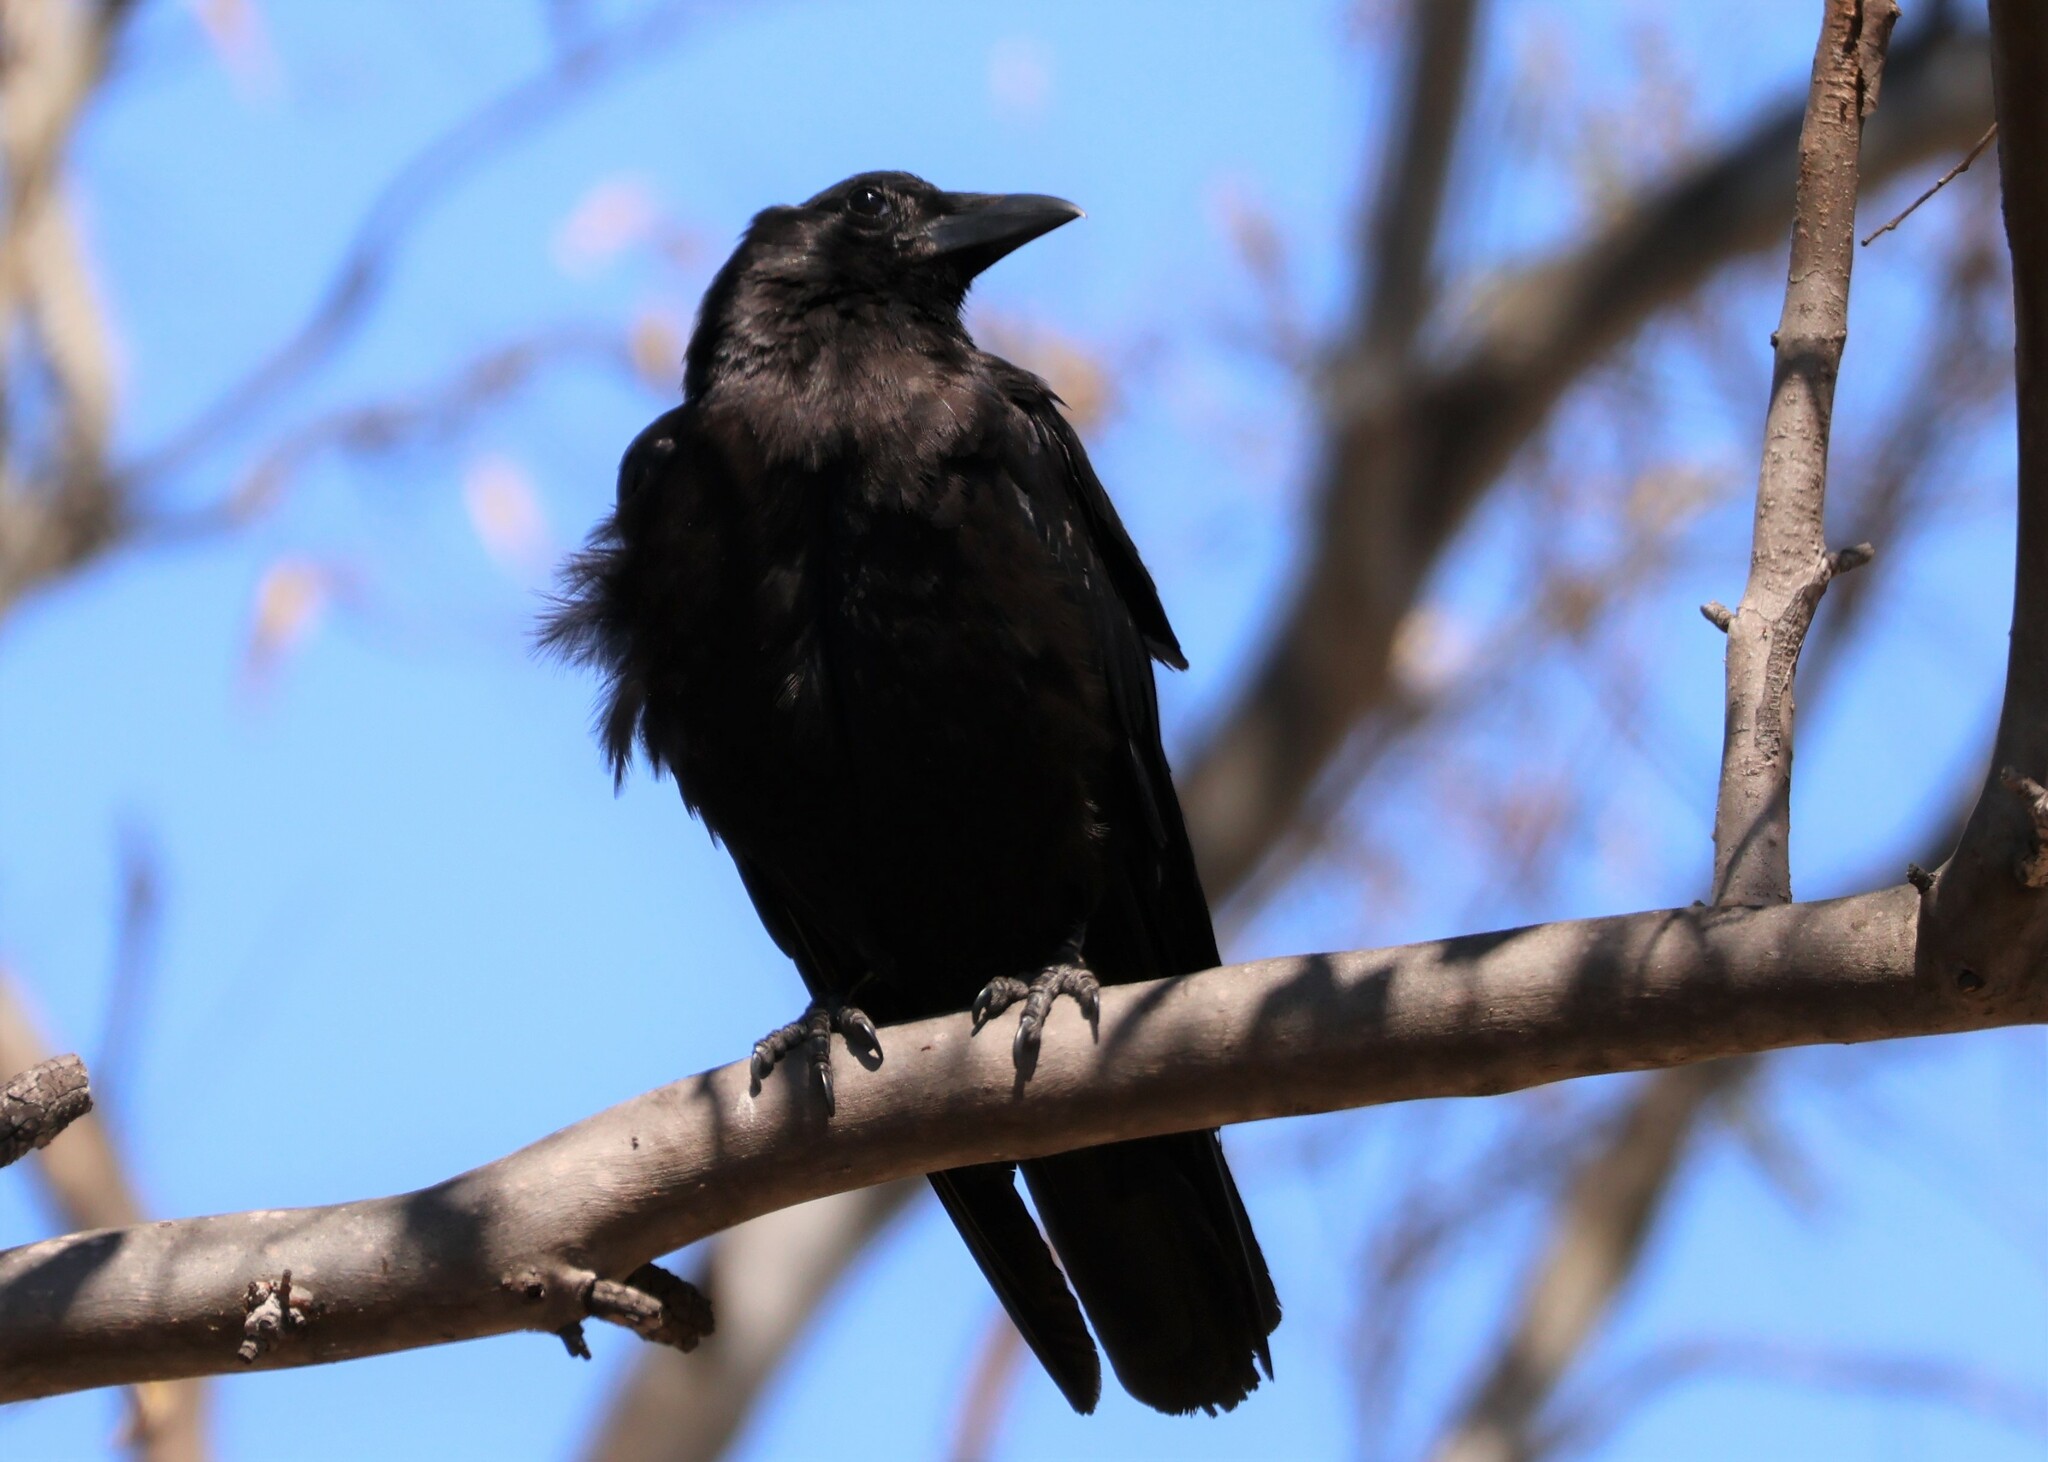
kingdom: Animalia
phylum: Chordata
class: Aves
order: Passeriformes
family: Corvidae
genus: Corvus
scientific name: Corvus brachyrhynchos
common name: American crow
